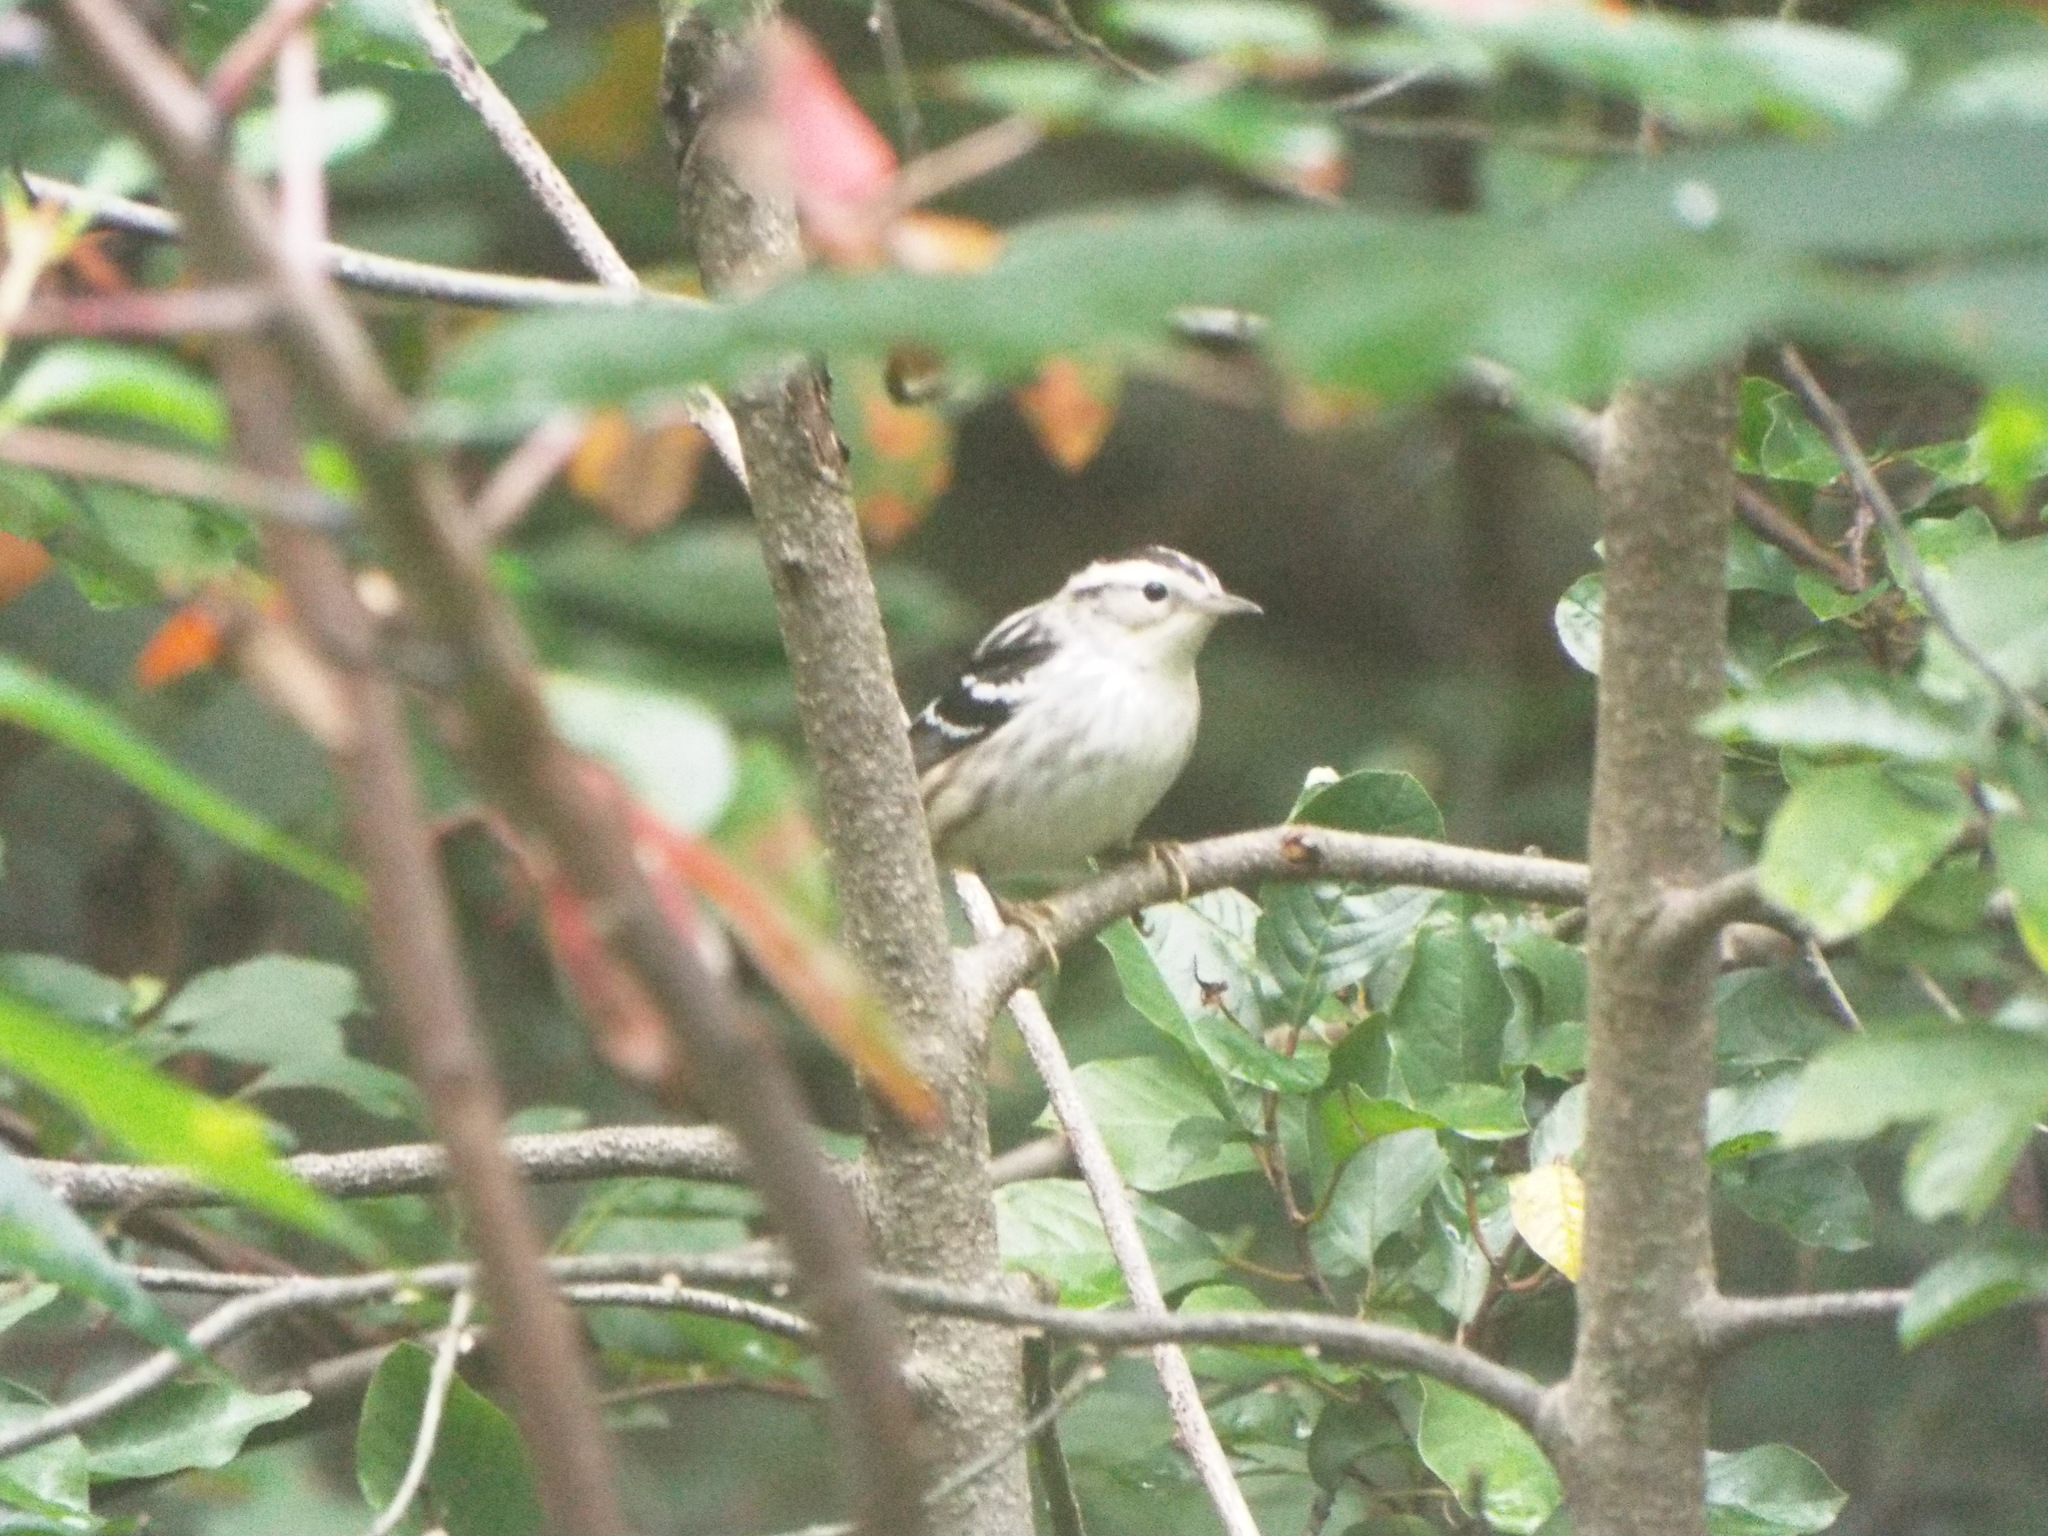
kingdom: Animalia
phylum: Chordata
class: Aves
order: Passeriformes
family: Parulidae
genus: Mniotilta
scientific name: Mniotilta varia
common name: Black-and-white warbler
